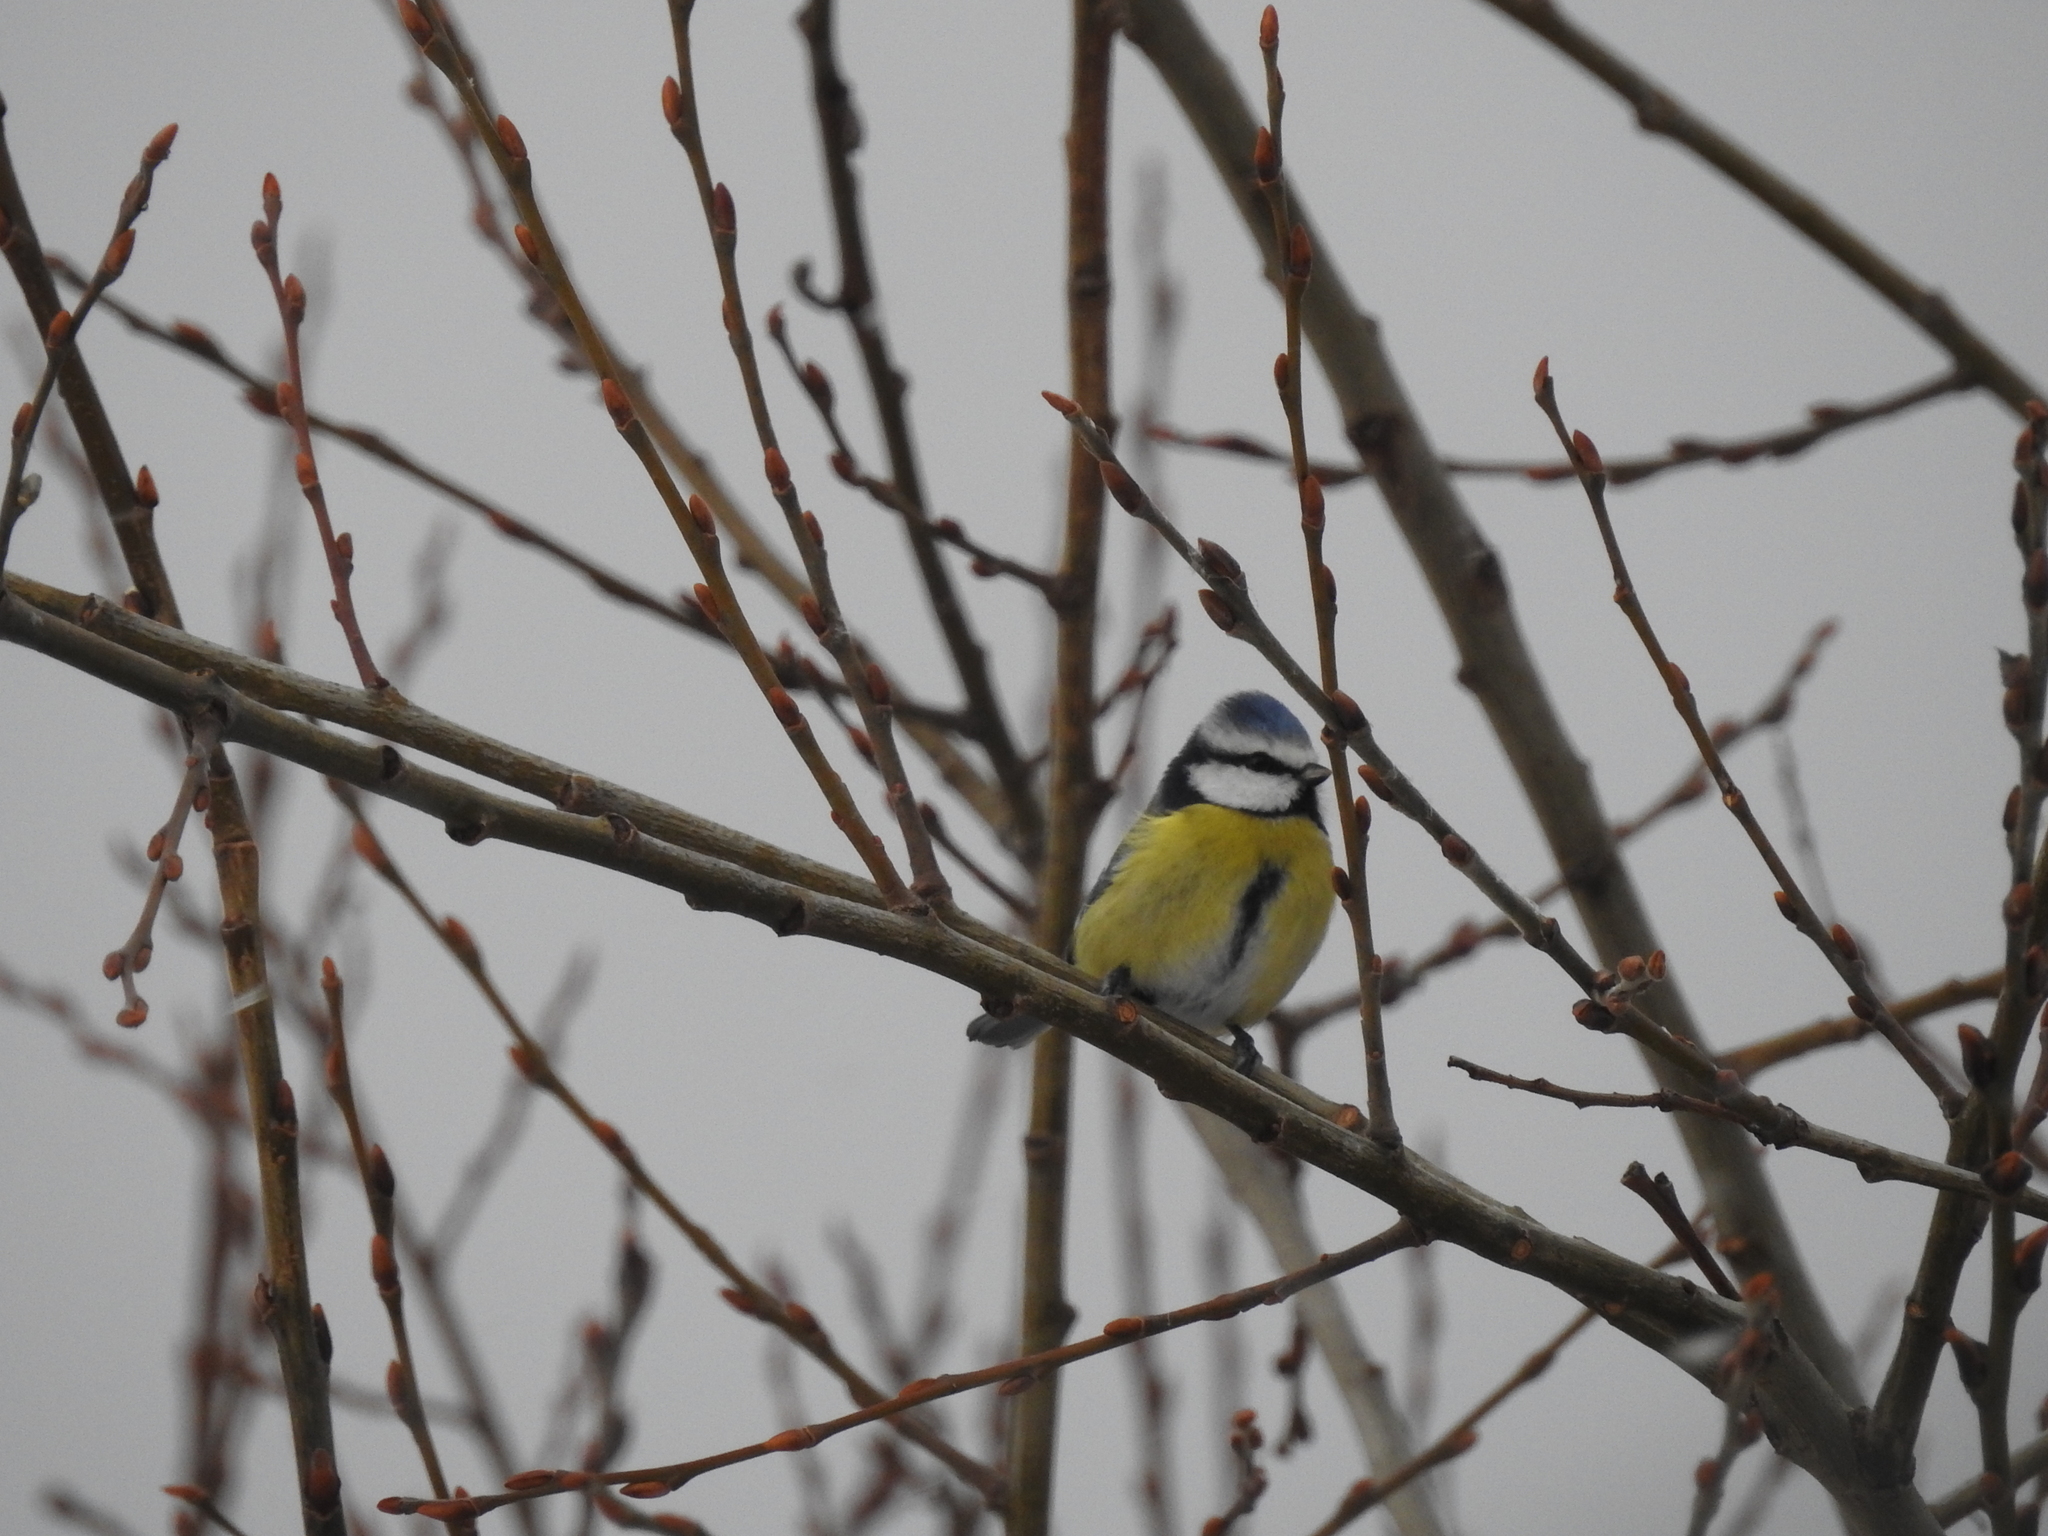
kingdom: Animalia
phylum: Chordata
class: Aves
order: Passeriformes
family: Paridae
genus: Cyanistes
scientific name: Cyanistes caeruleus
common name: Eurasian blue tit
